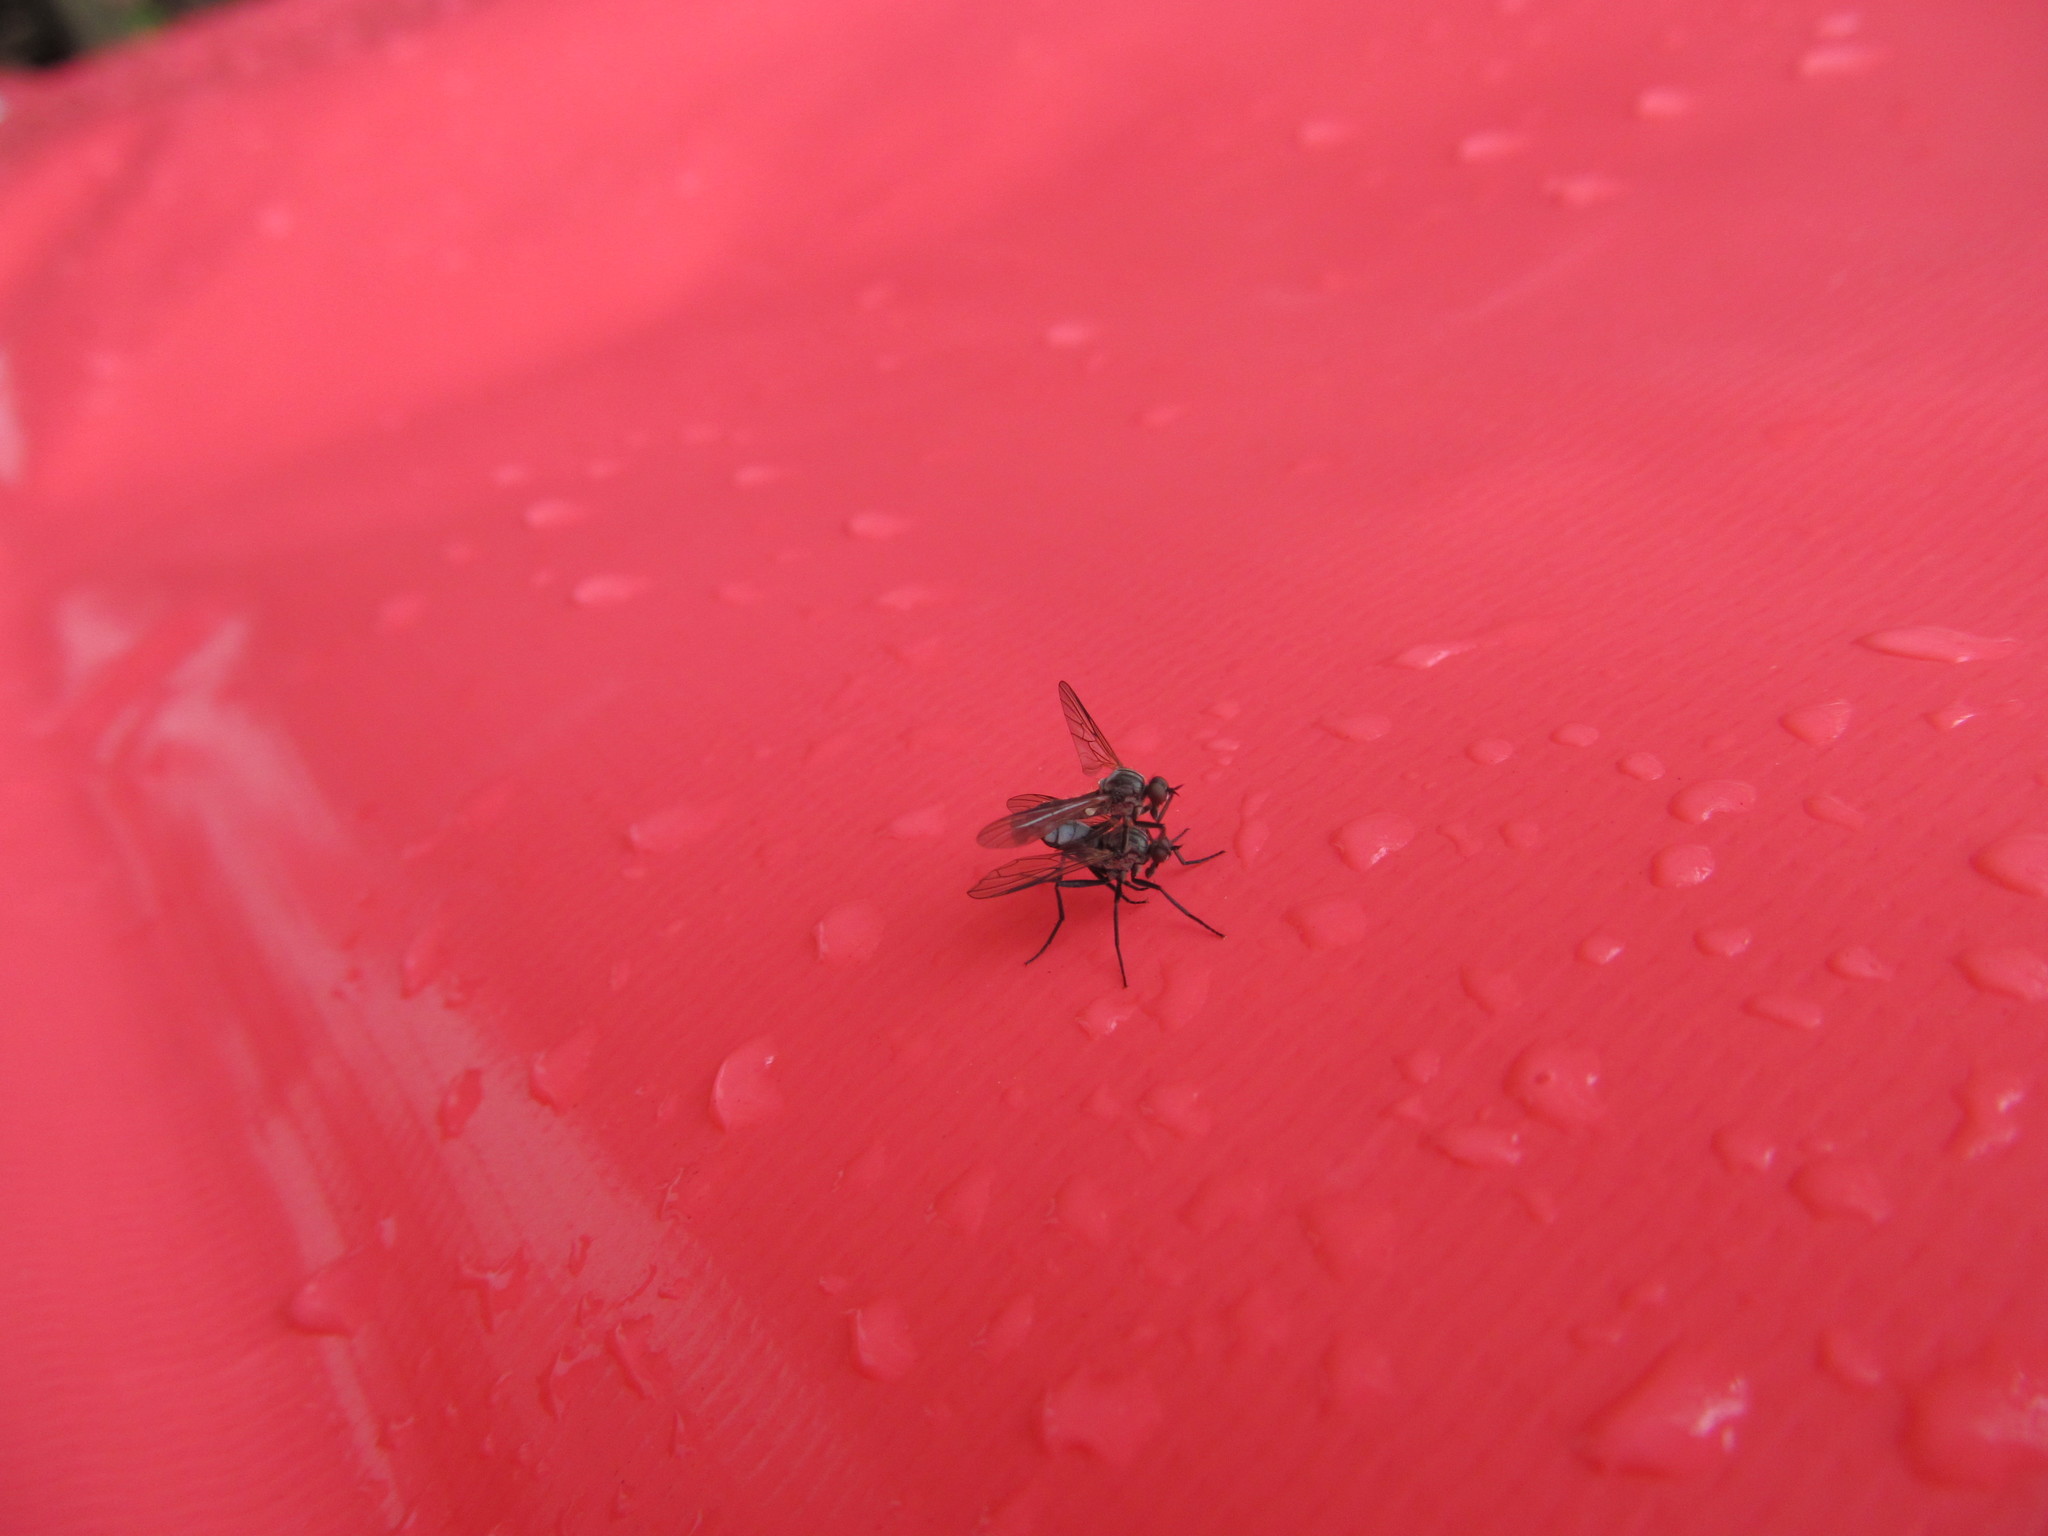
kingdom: Animalia
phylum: Arthropoda
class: Insecta
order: Diptera
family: Empididae
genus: Rhamphomyia
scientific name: Rhamphomyia crassirostris
